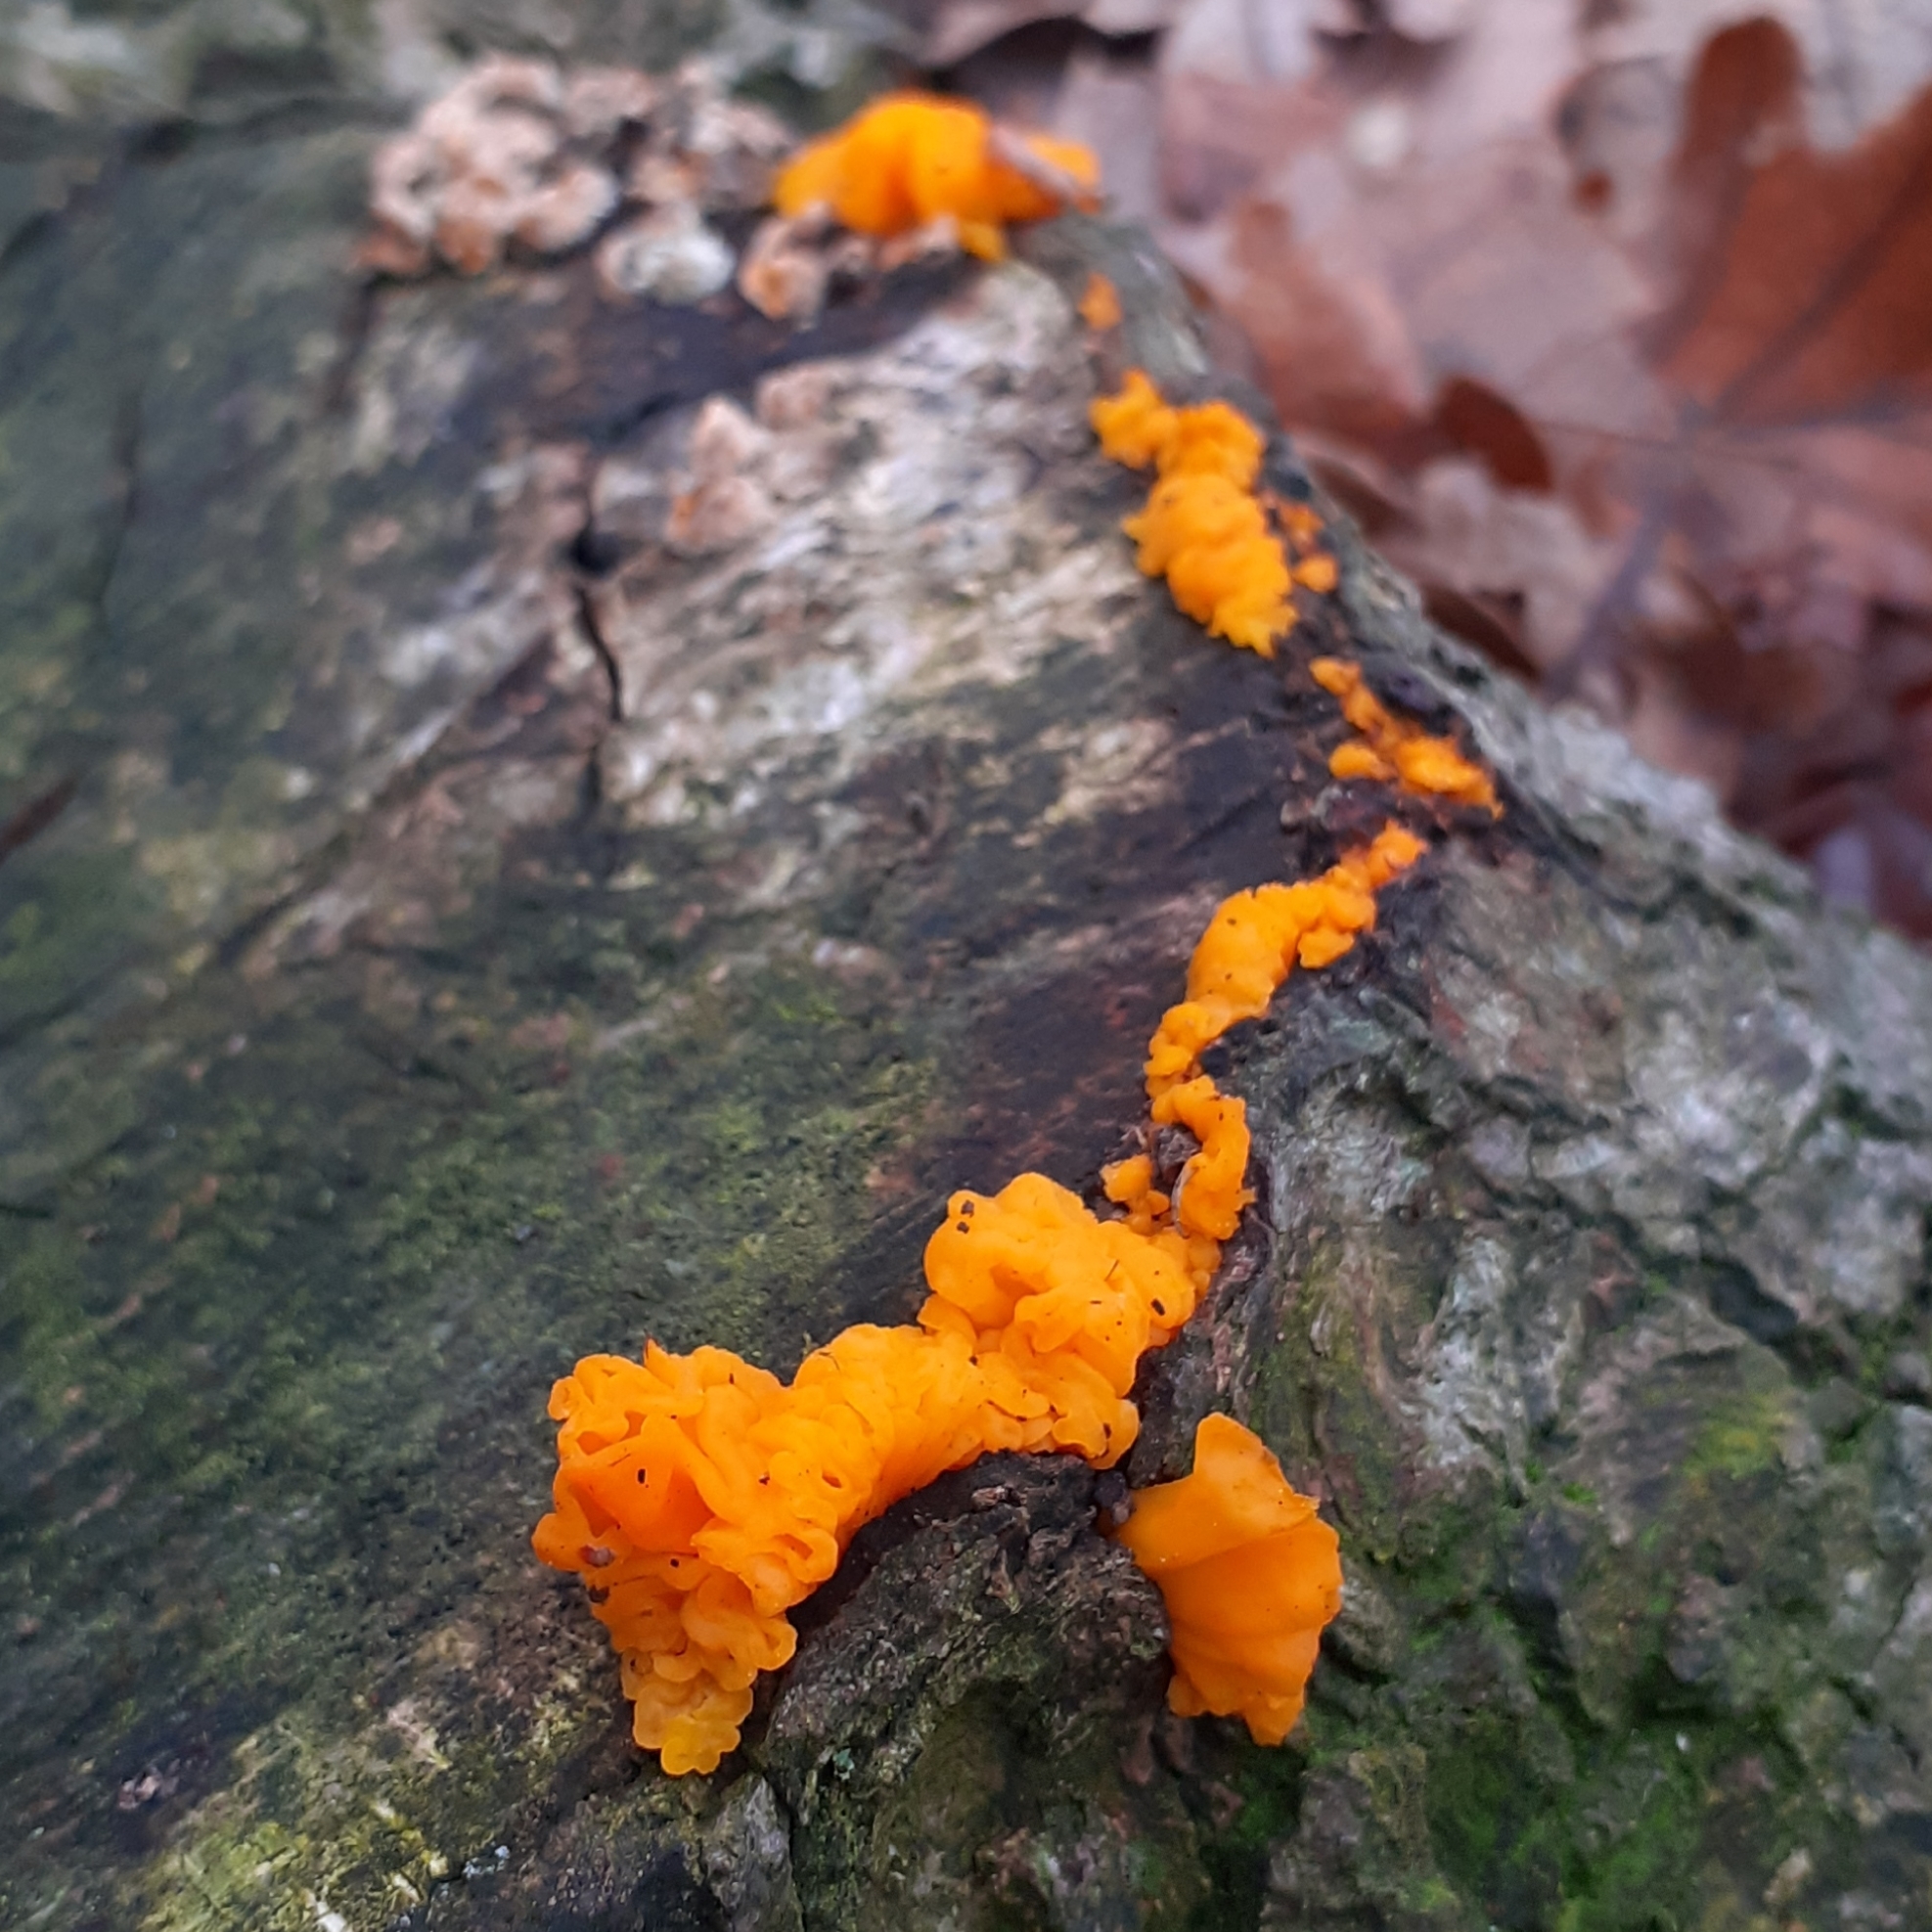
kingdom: Fungi
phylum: Basidiomycota
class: Tremellomycetes
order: Tremellales
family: Naemateliaceae
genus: Naematelia
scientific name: Naematelia aurantia
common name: Golden ear
